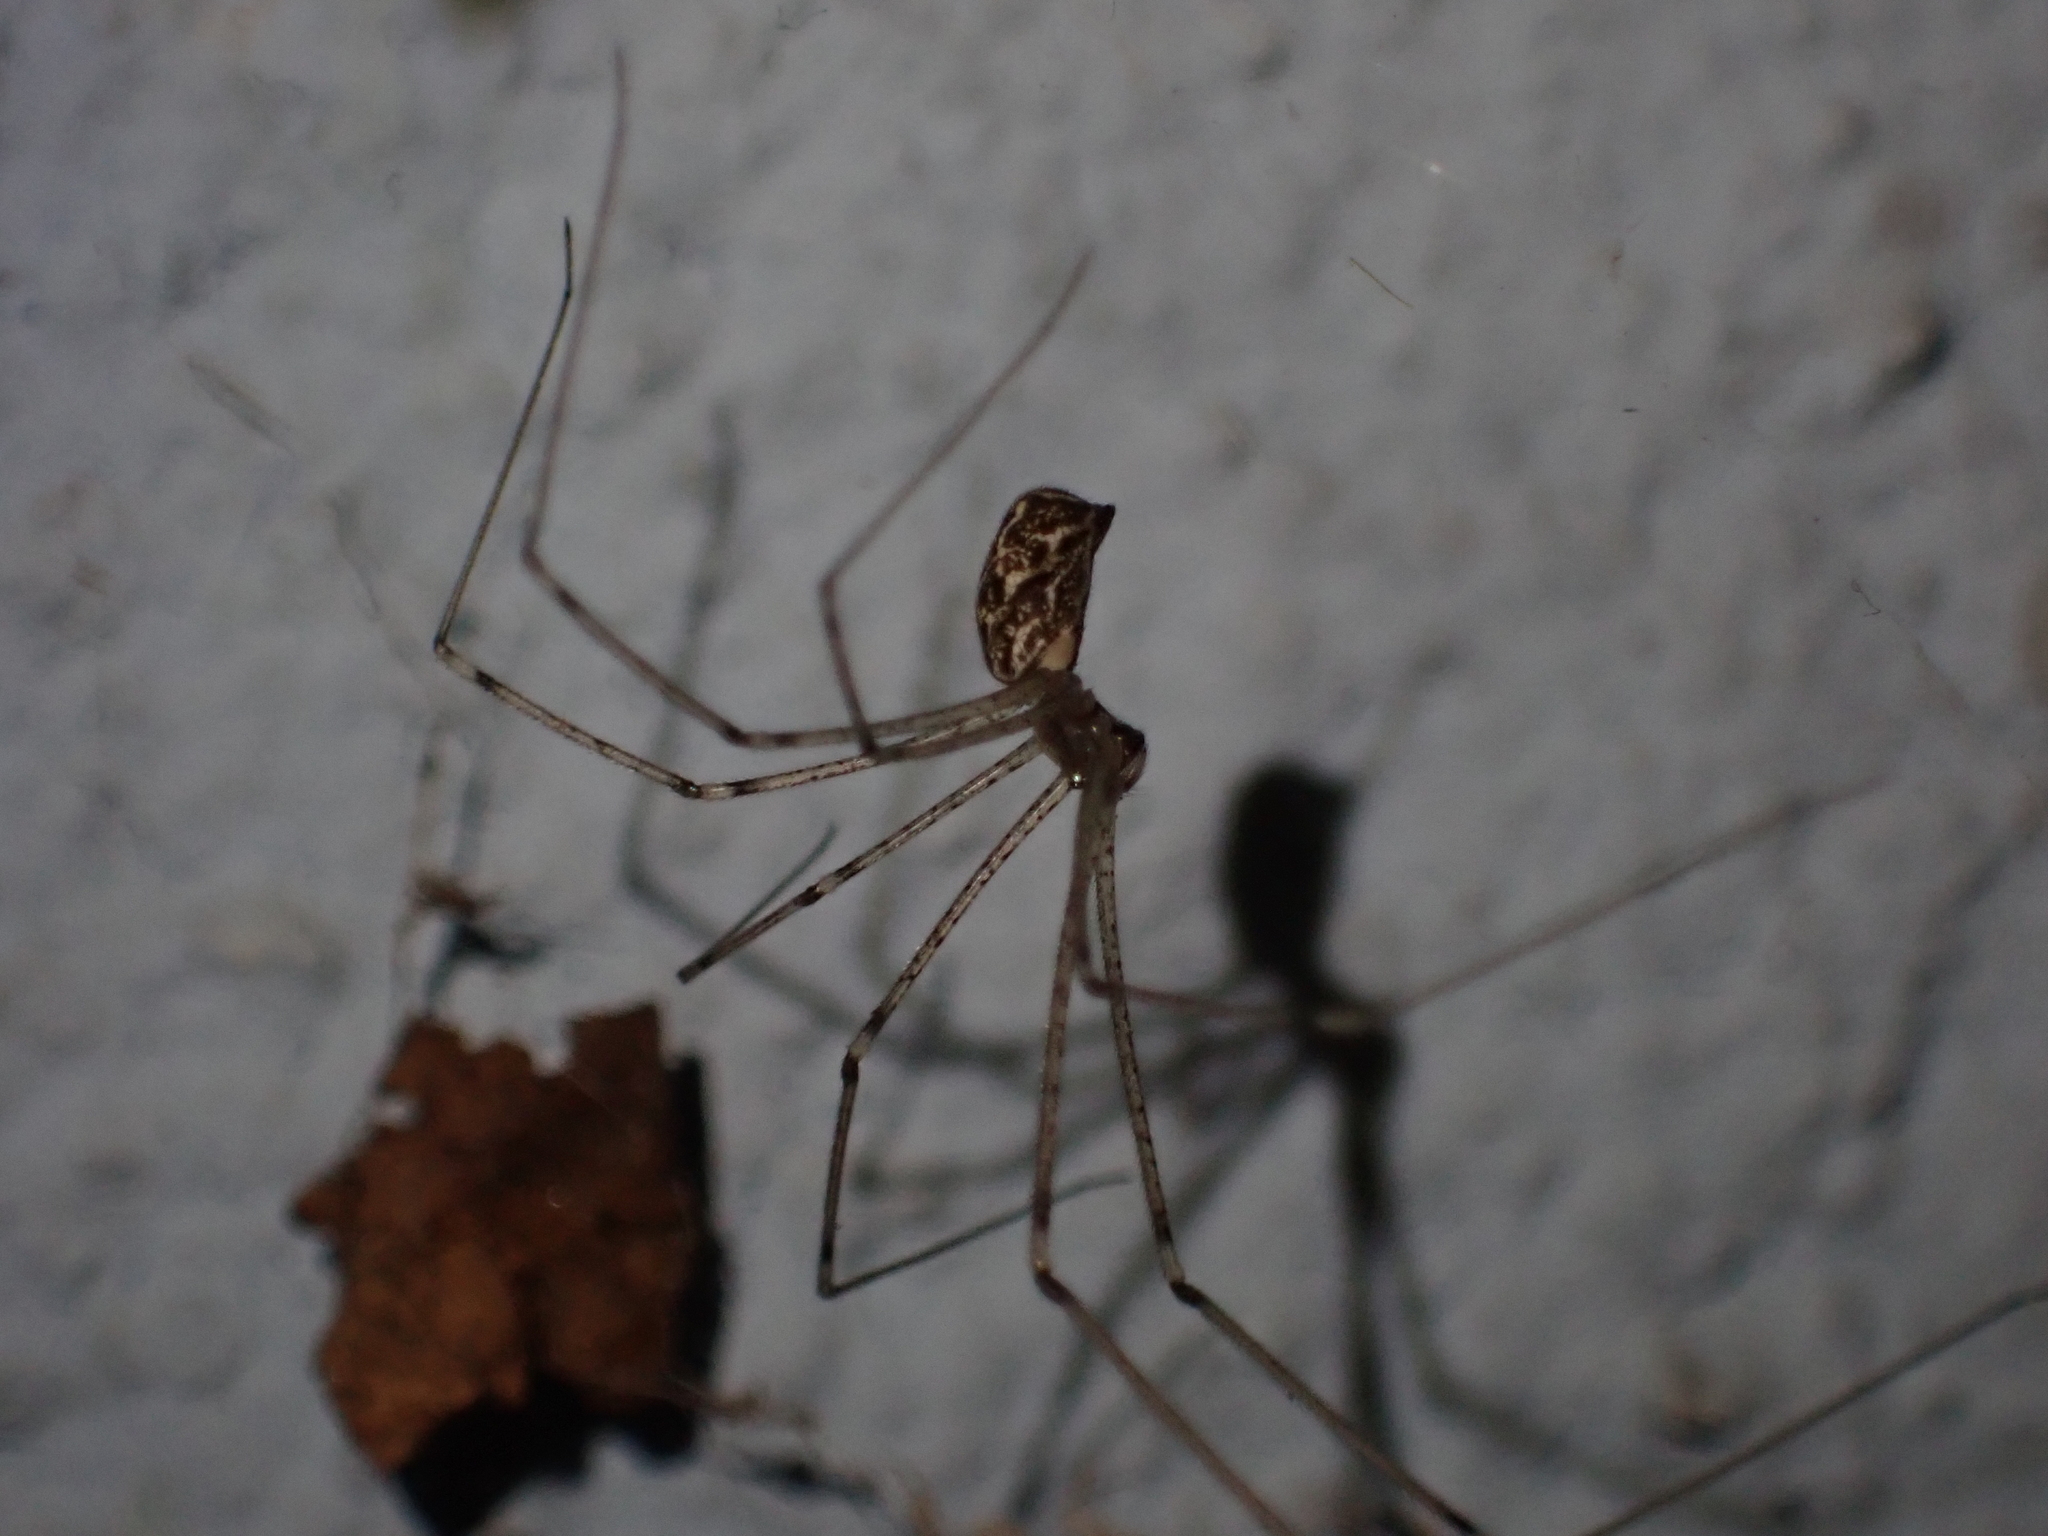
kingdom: Animalia
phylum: Arthropoda
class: Arachnida
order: Araneae
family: Pholcidae
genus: Holocnemus
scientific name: Holocnemus pluchei
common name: Marbled cellar spider
